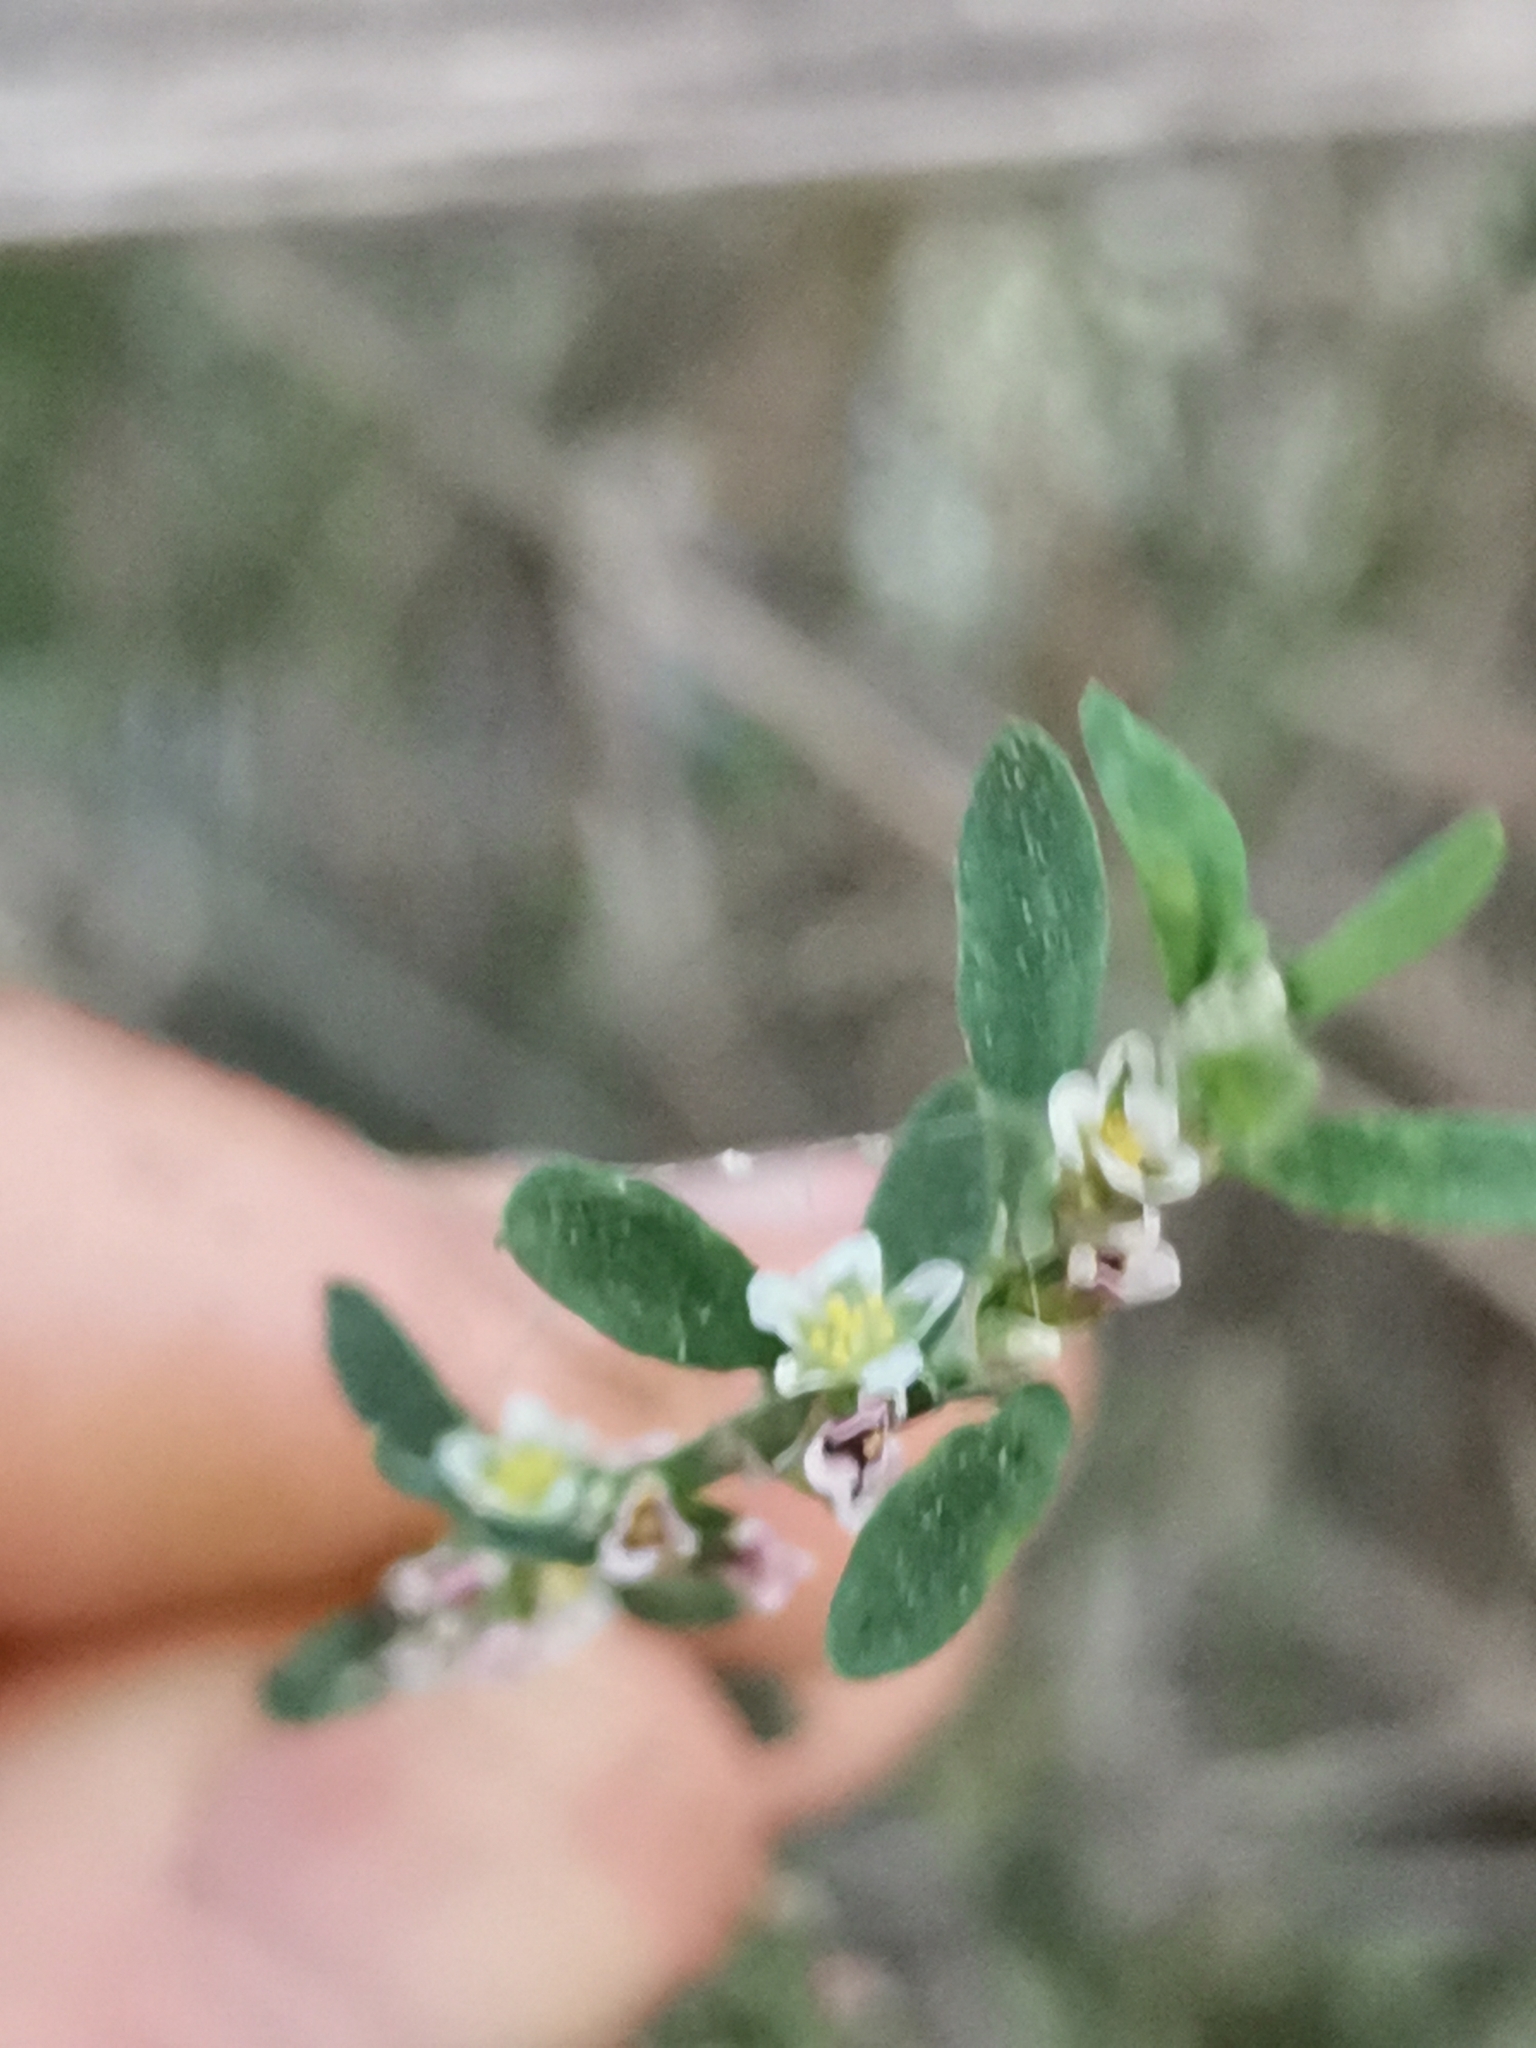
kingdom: Plantae
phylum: Tracheophyta
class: Magnoliopsida
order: Caryophyllales
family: Polygonaceae
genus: Polygonum
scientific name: Polygonum aviculare
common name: Prostrate knotweed
